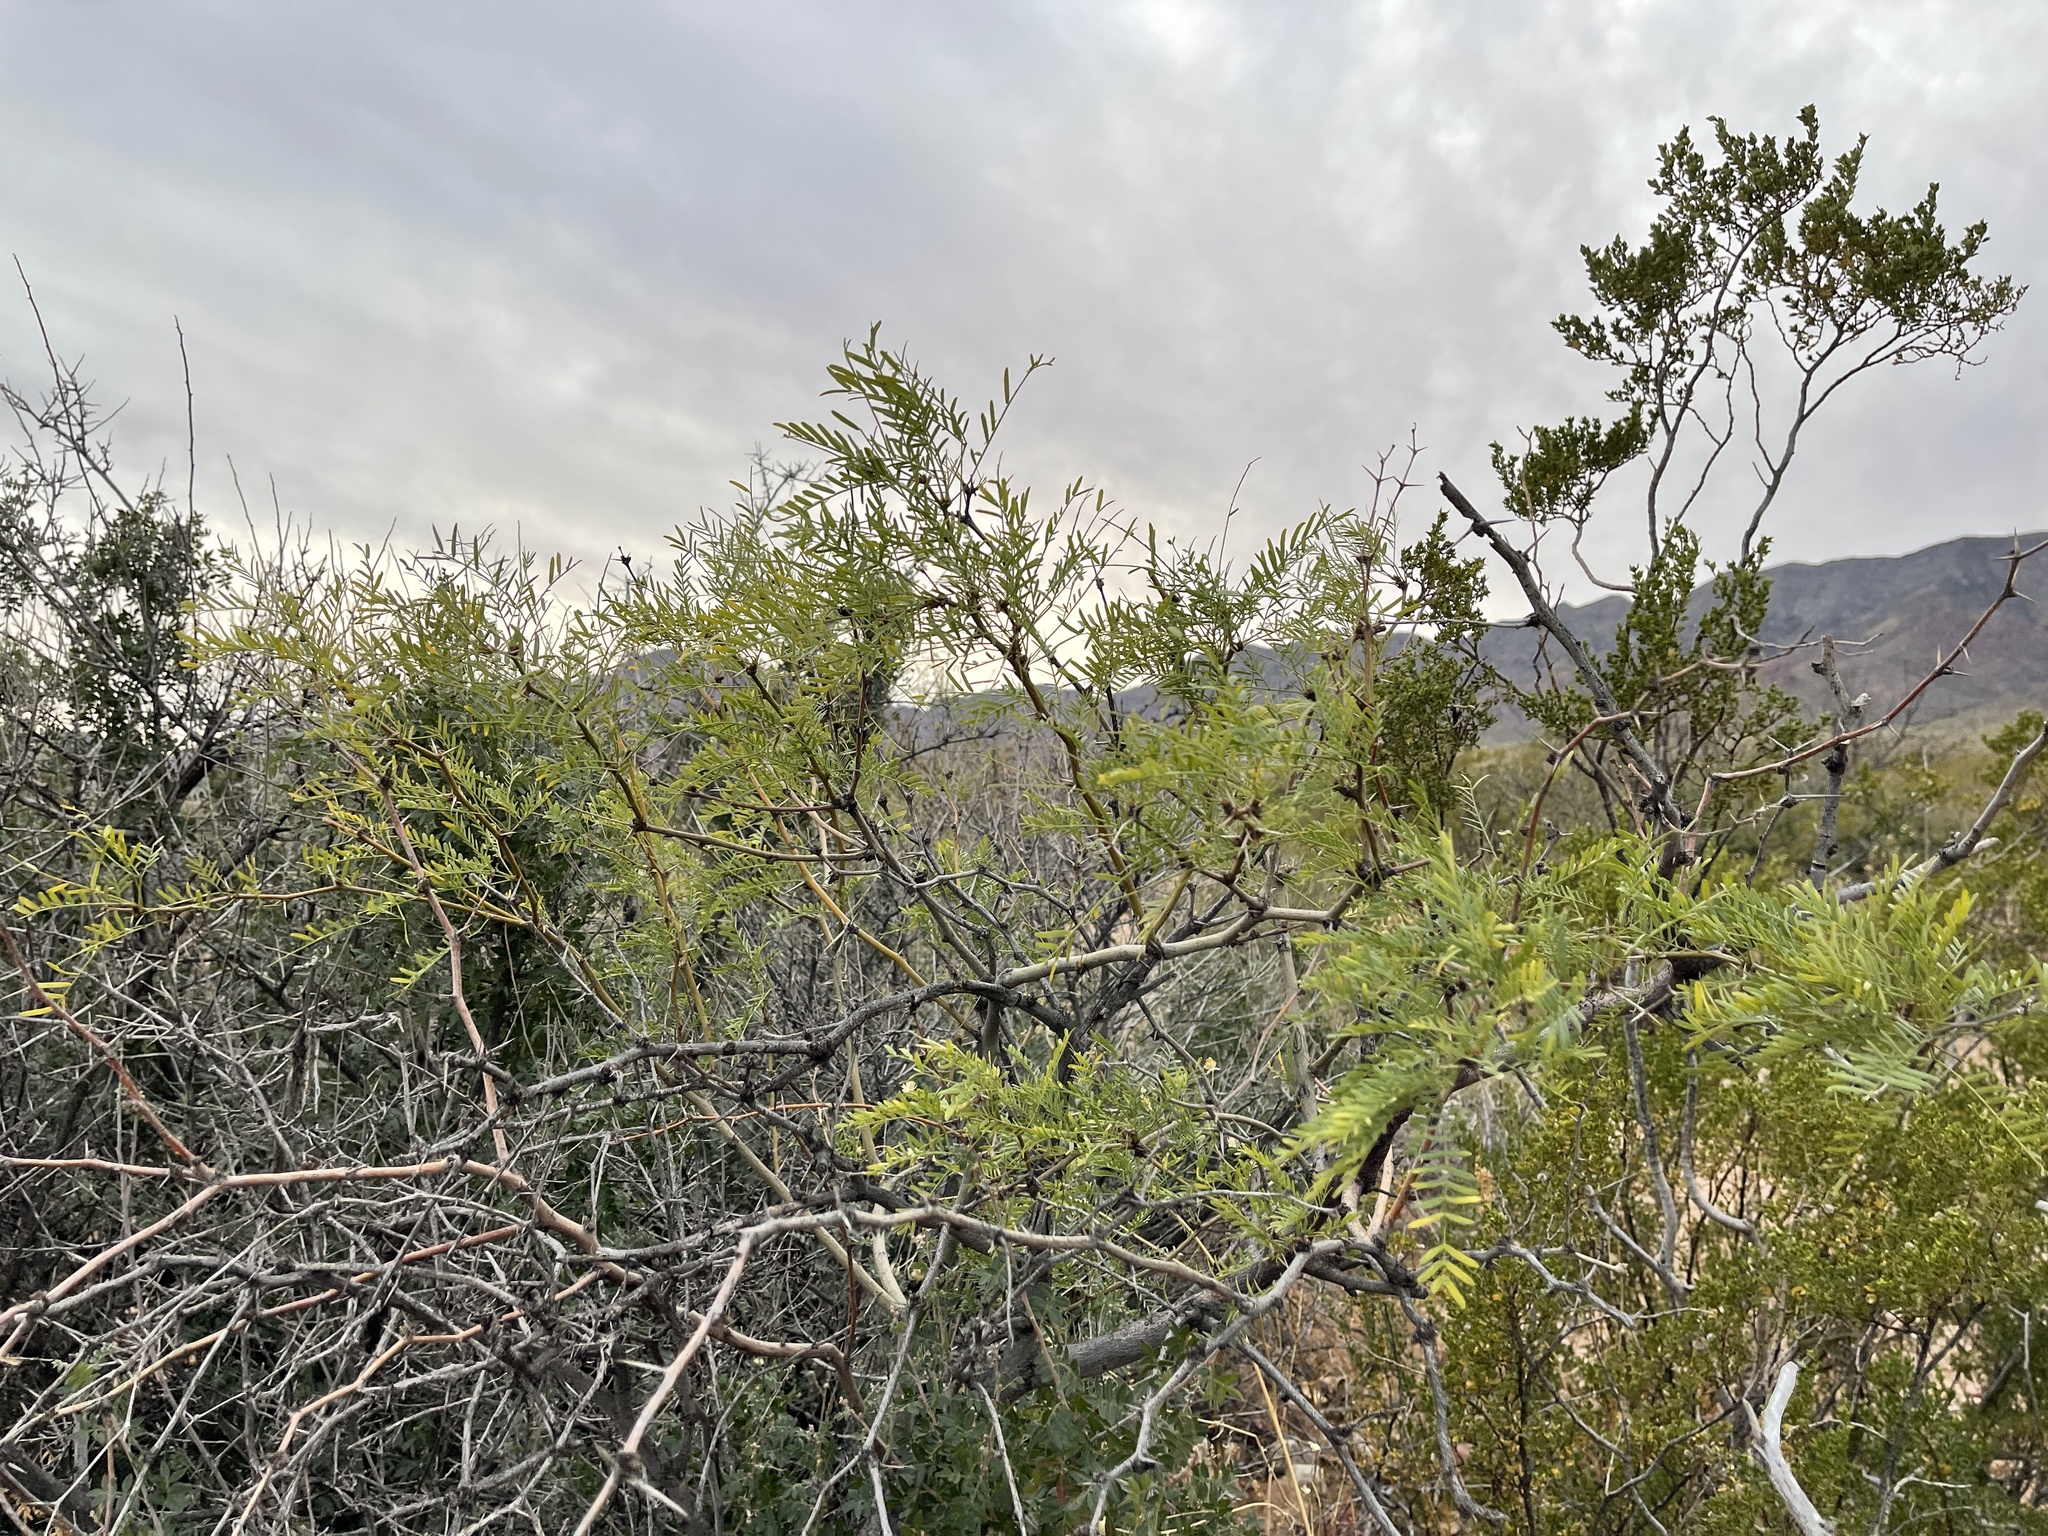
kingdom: Plantae
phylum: Tracheophyta
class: Magnoliopsida
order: Fabales
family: Fabaceae
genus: Prosopis
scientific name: Prosopis glandulosa
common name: Honey mesquite
